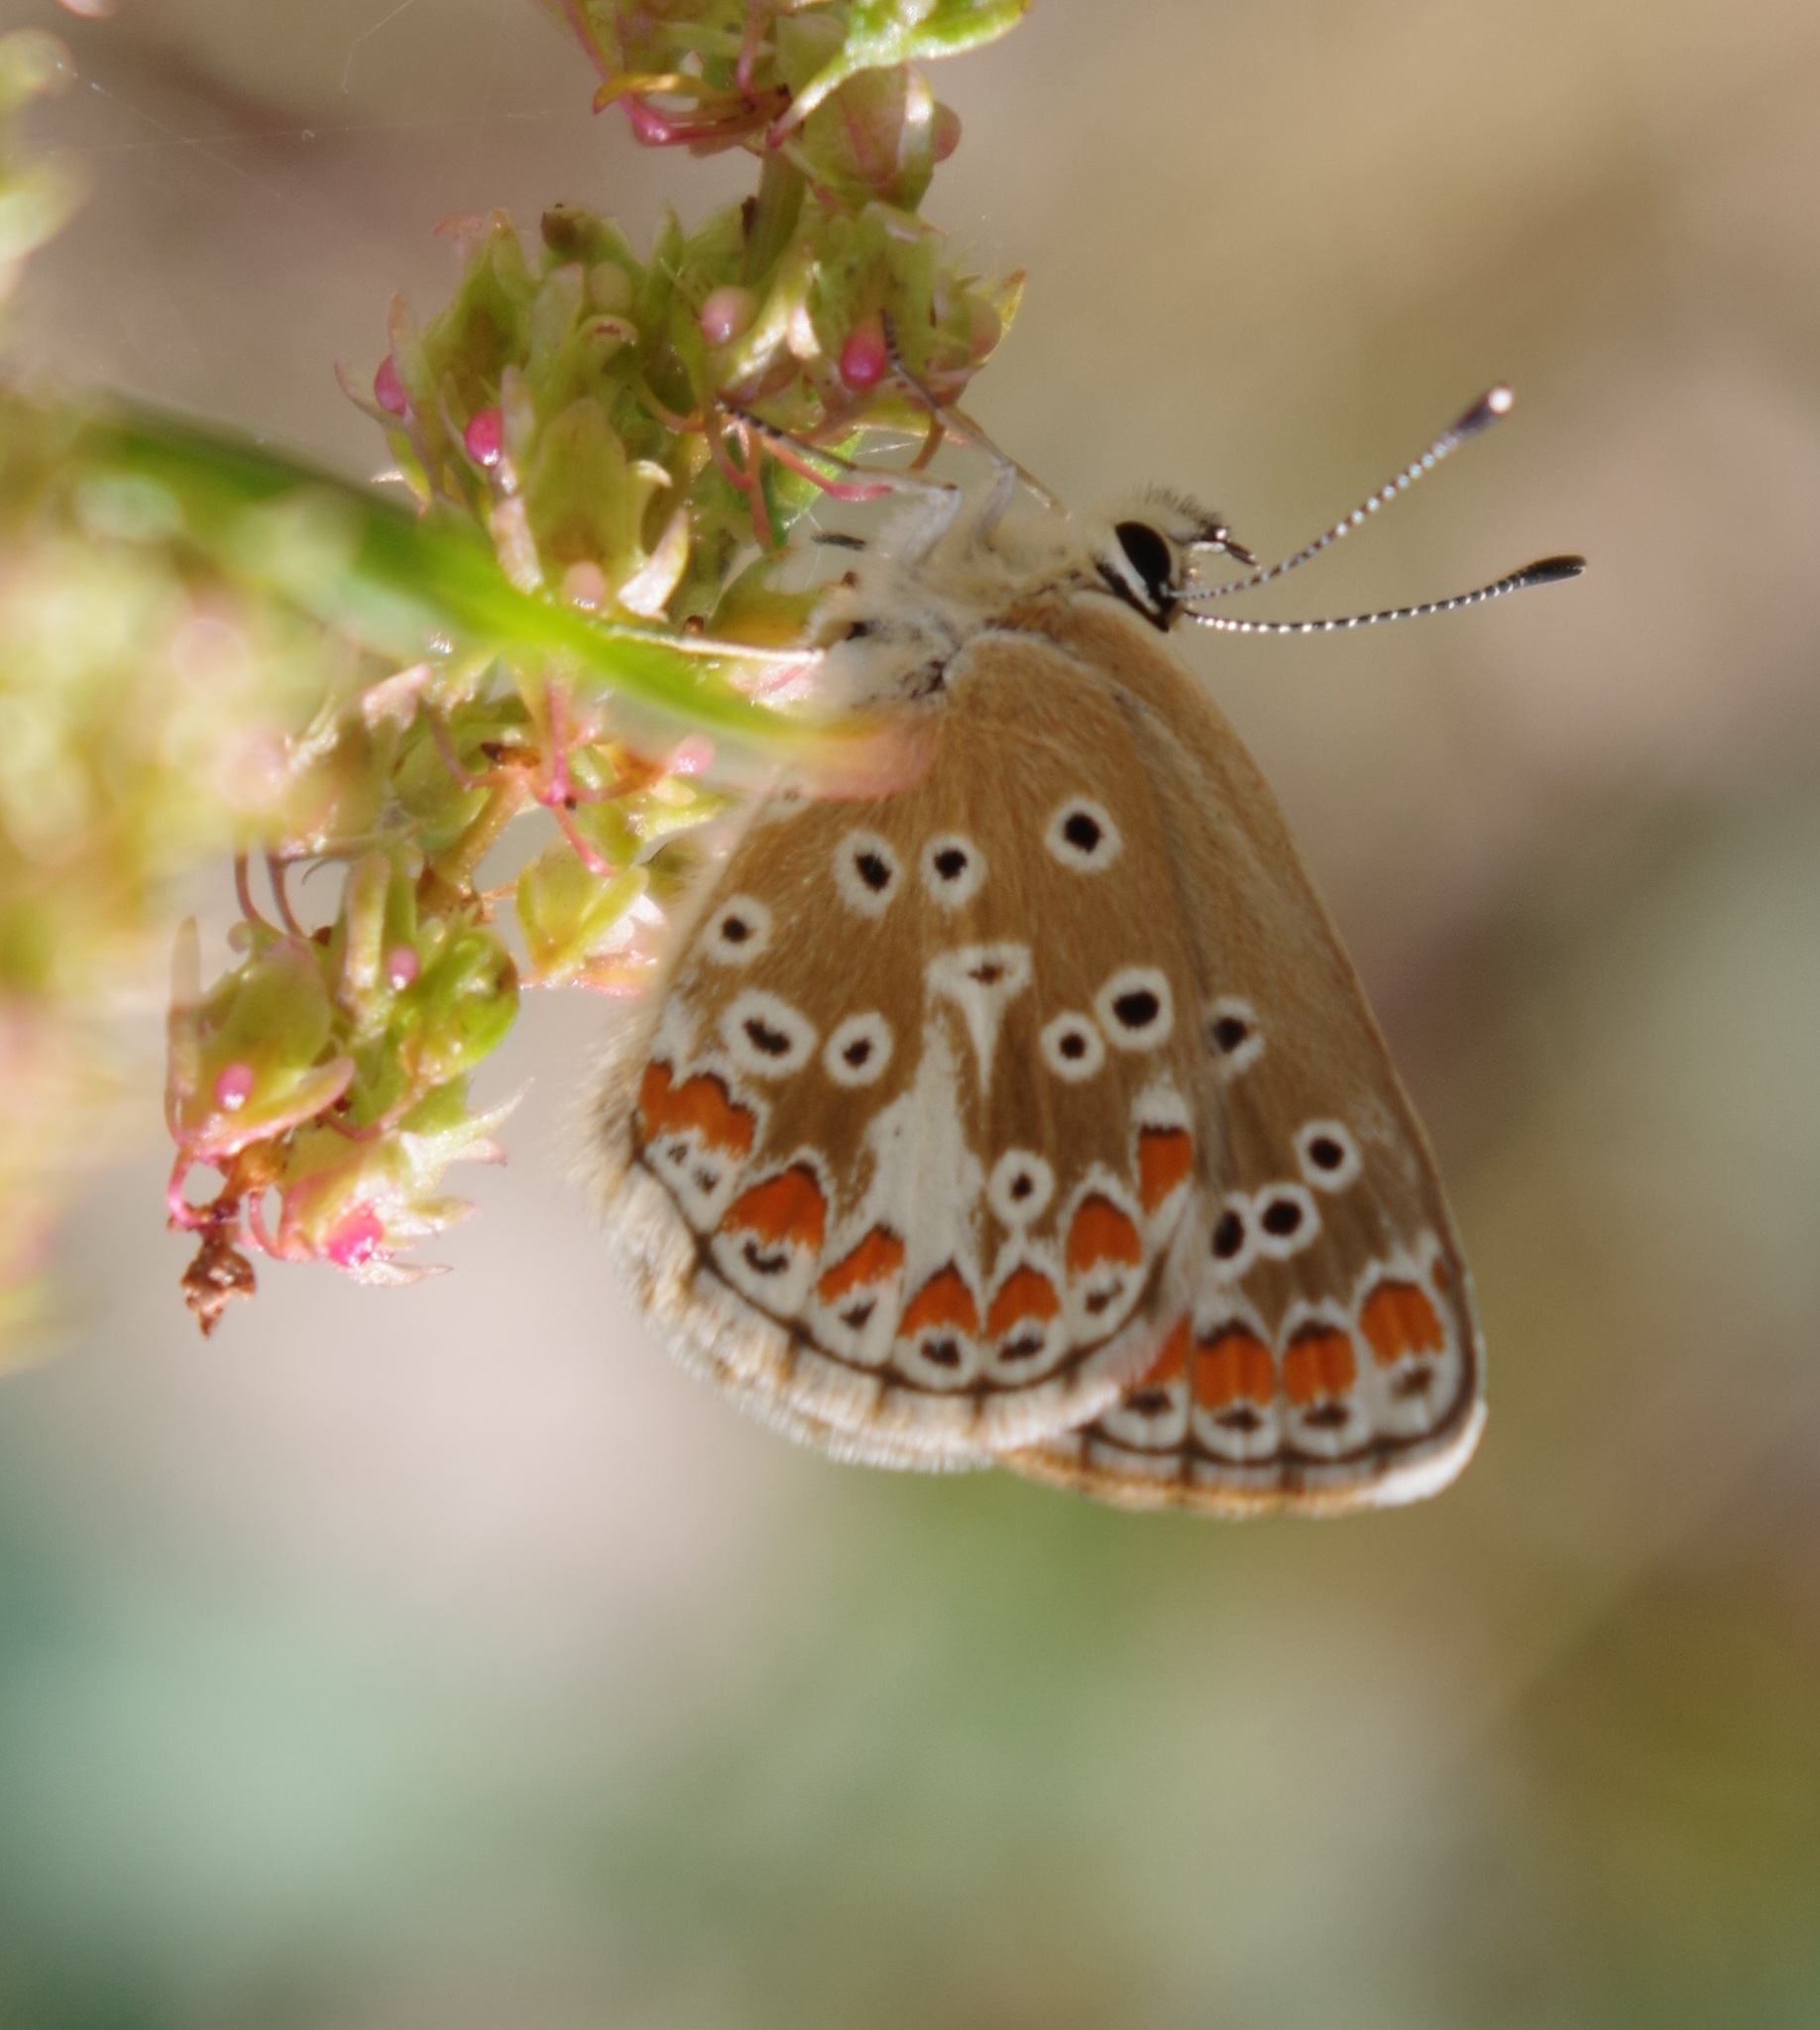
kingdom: Animalia
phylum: Arthropoda
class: Insecta
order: Lepidoptera
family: Lycaenidae
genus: Aricia
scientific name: Aricia agestis
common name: Brown argus
